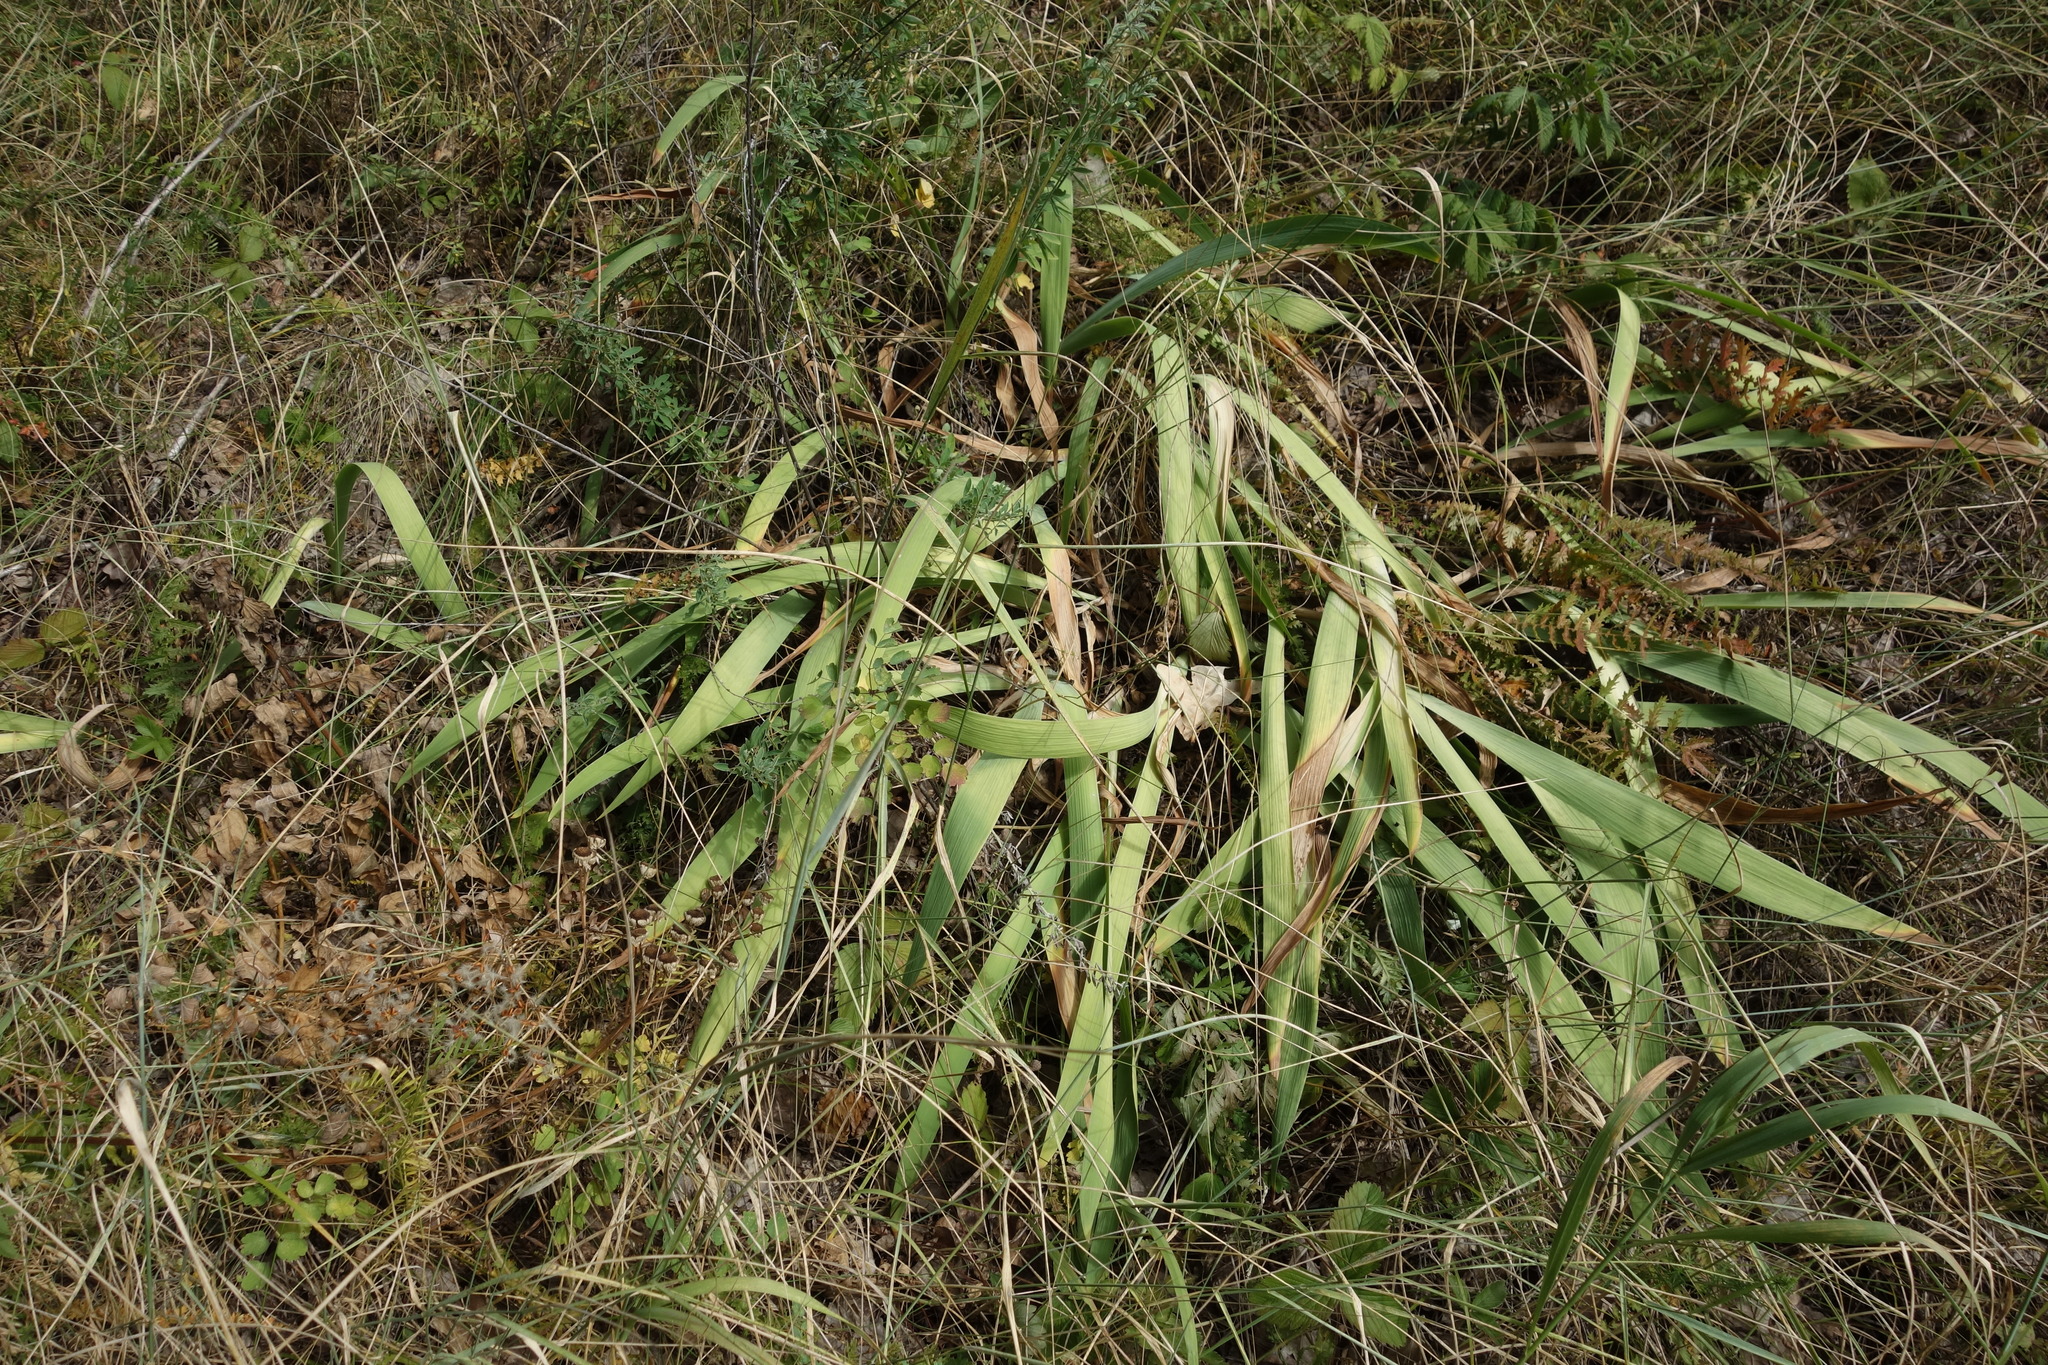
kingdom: Plantae
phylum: Tracheophyta
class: Liliopsida
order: Asparagales
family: Iridaceae
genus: Iris
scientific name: Iris aphylla
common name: Stool iris
